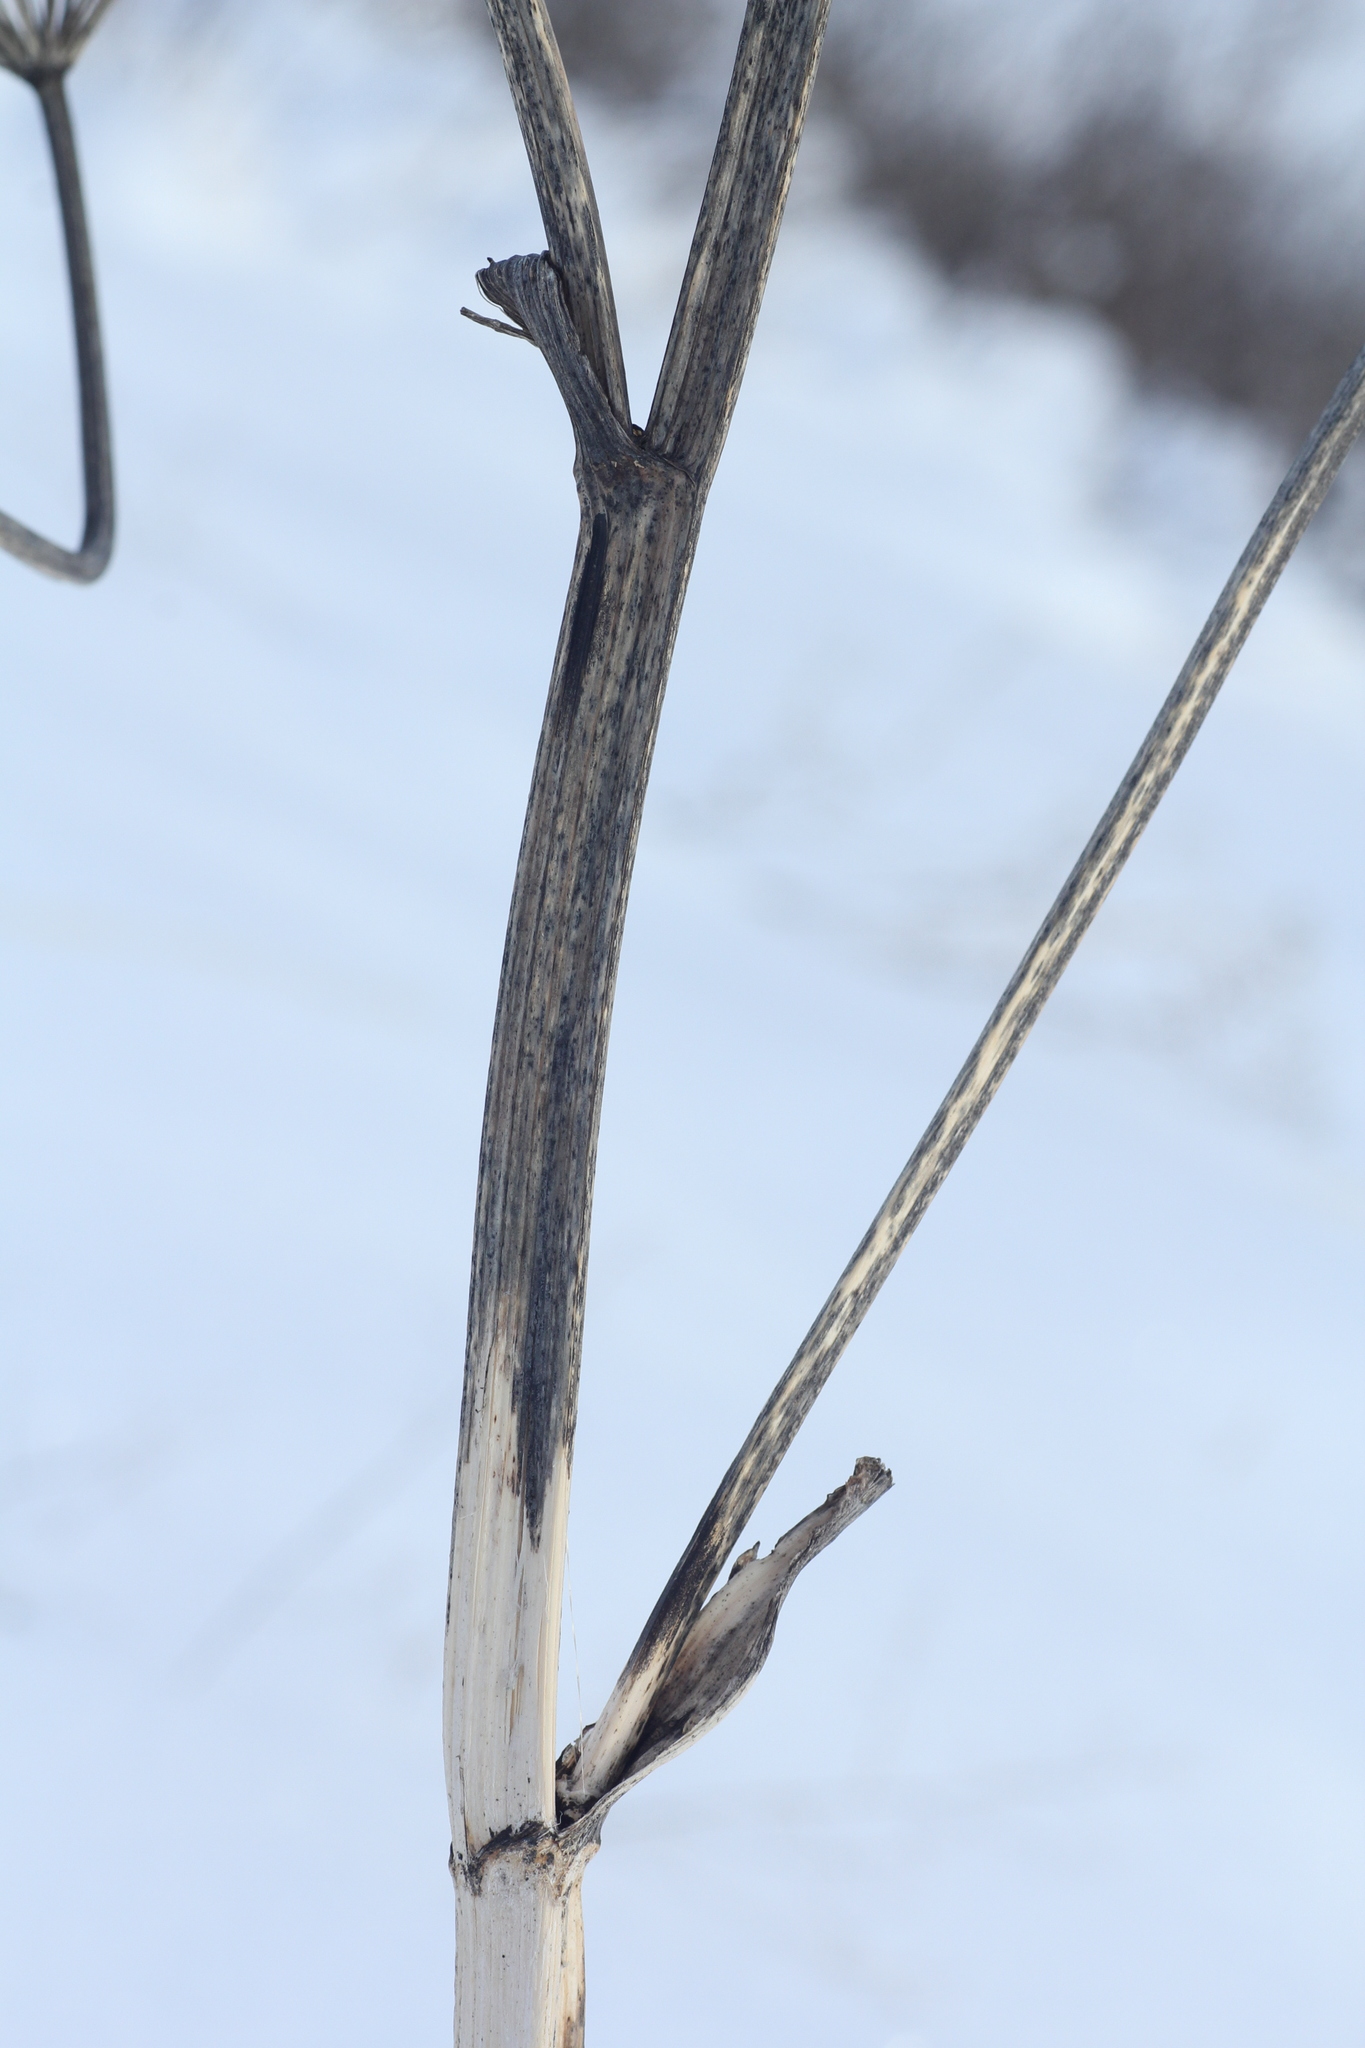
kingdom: Plantae
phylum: Tracheophyta
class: Magnoliopsida
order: Apiales
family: Apiaceae
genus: Pleurospermum
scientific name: Pleurospermum uralense
